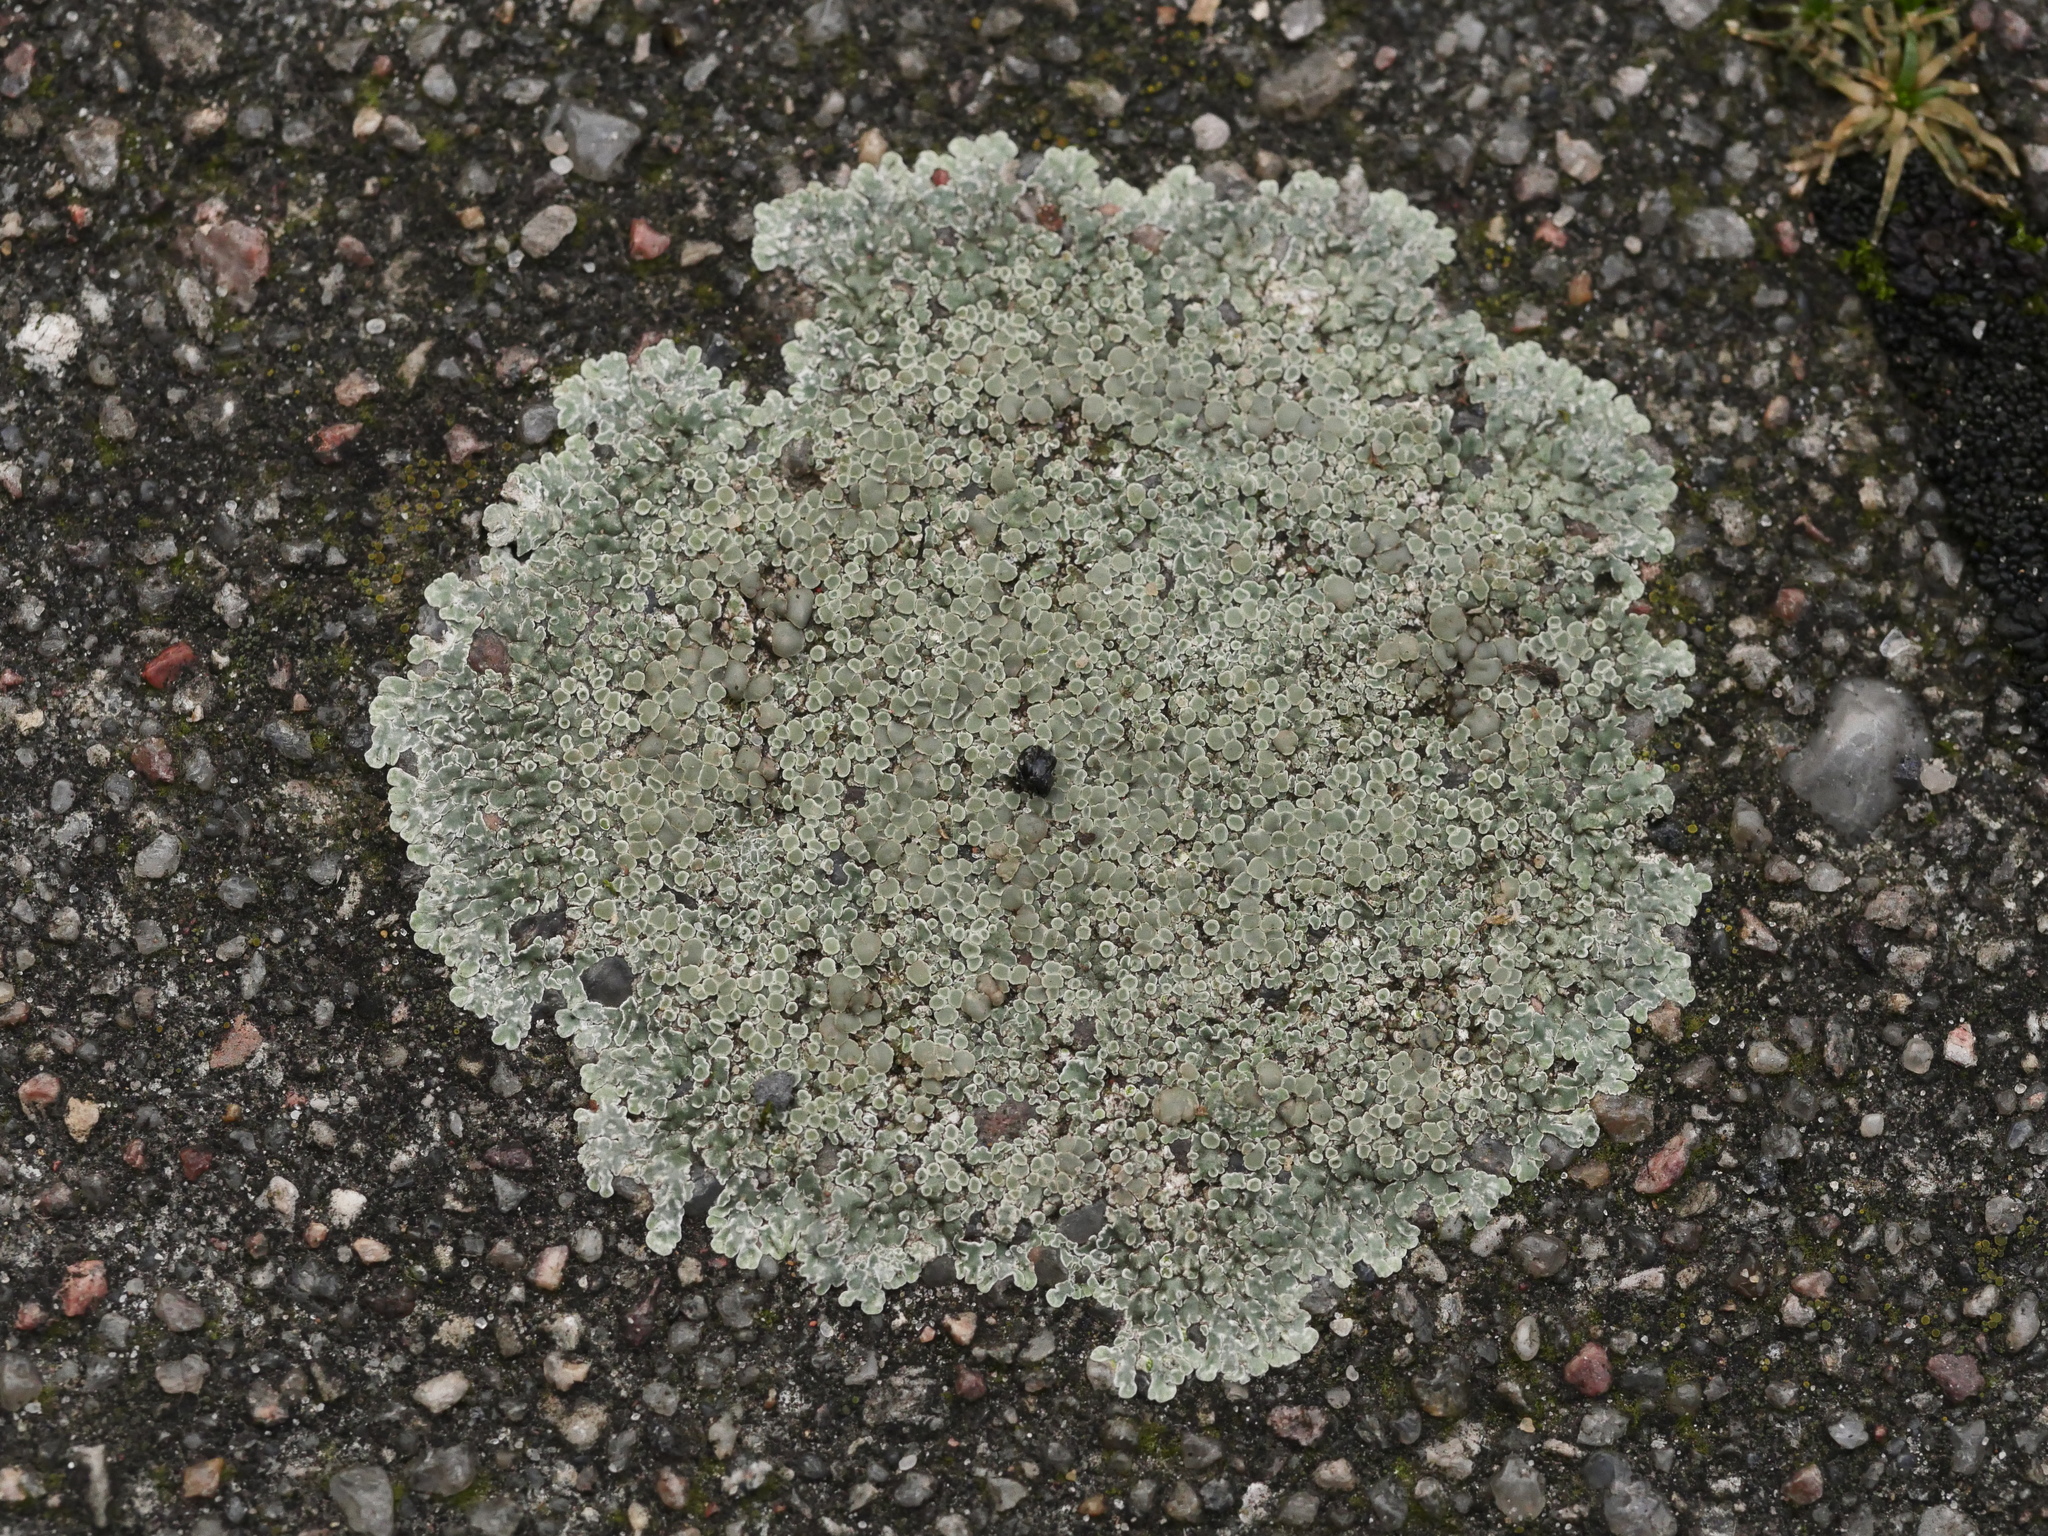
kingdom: Fungi
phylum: Ascomycota
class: Lecanoromycetes
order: Lecanorales
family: Lecanoraceae
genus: Protoparmeliopsis
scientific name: Protoparmeliopsis muralis
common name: Stonewall rim lichen
